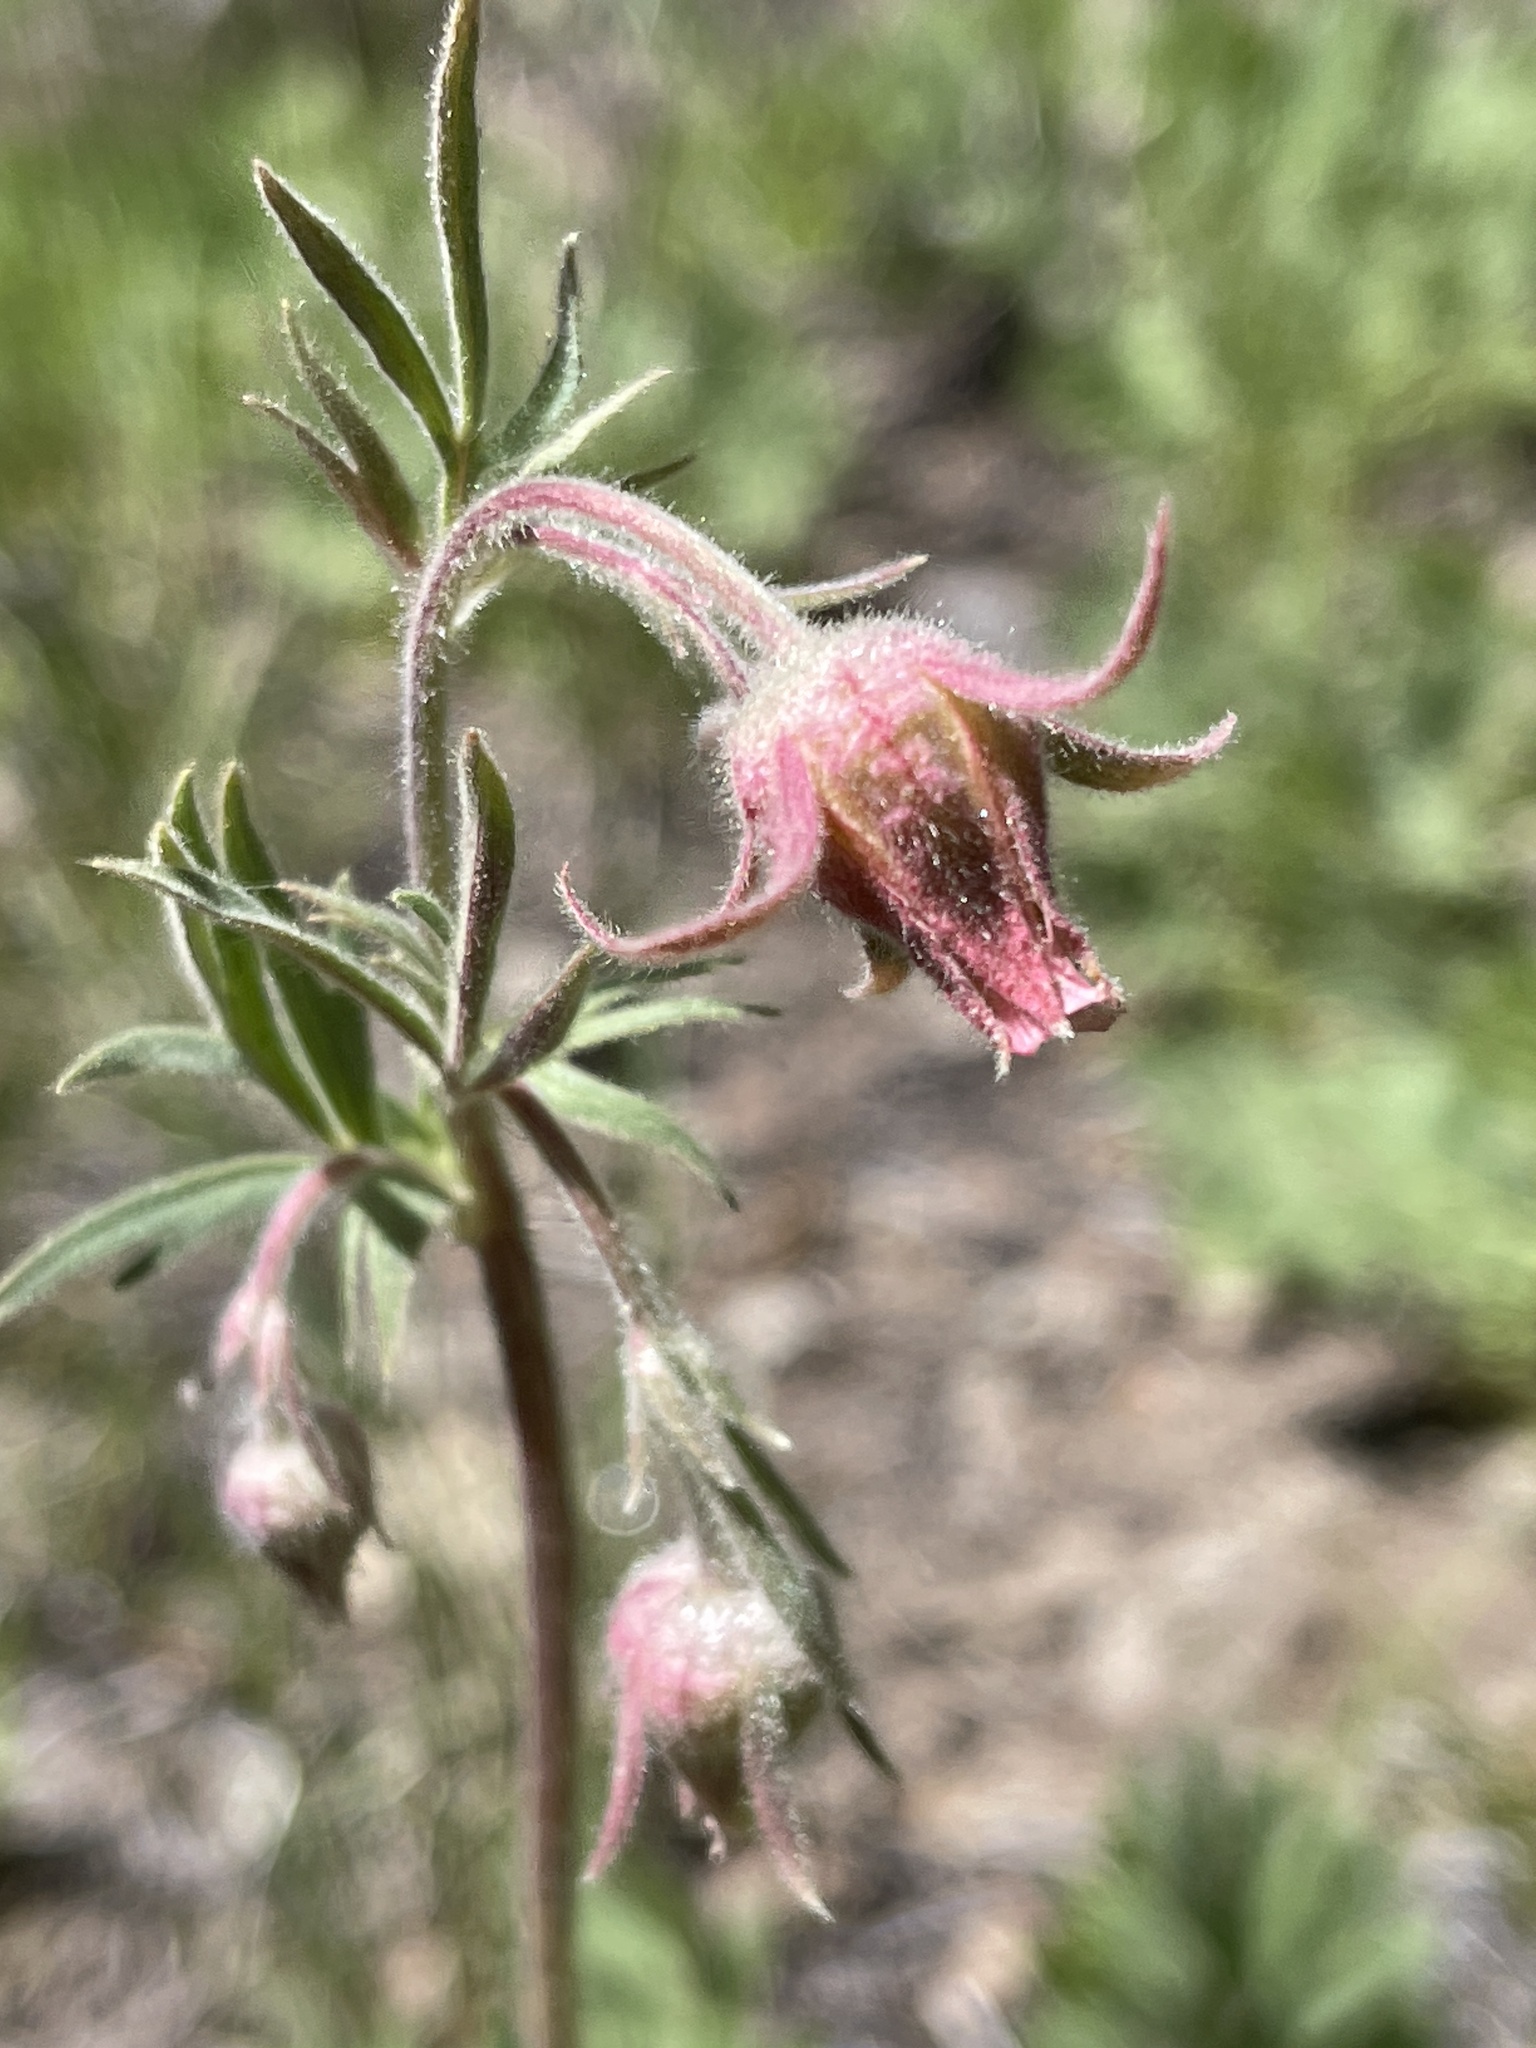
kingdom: Plantae
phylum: Tracheophyta
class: Magnoliopsida
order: Rosales
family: Rosaceae
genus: Geum
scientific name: Geum triflorum
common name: Old man's whiskers
